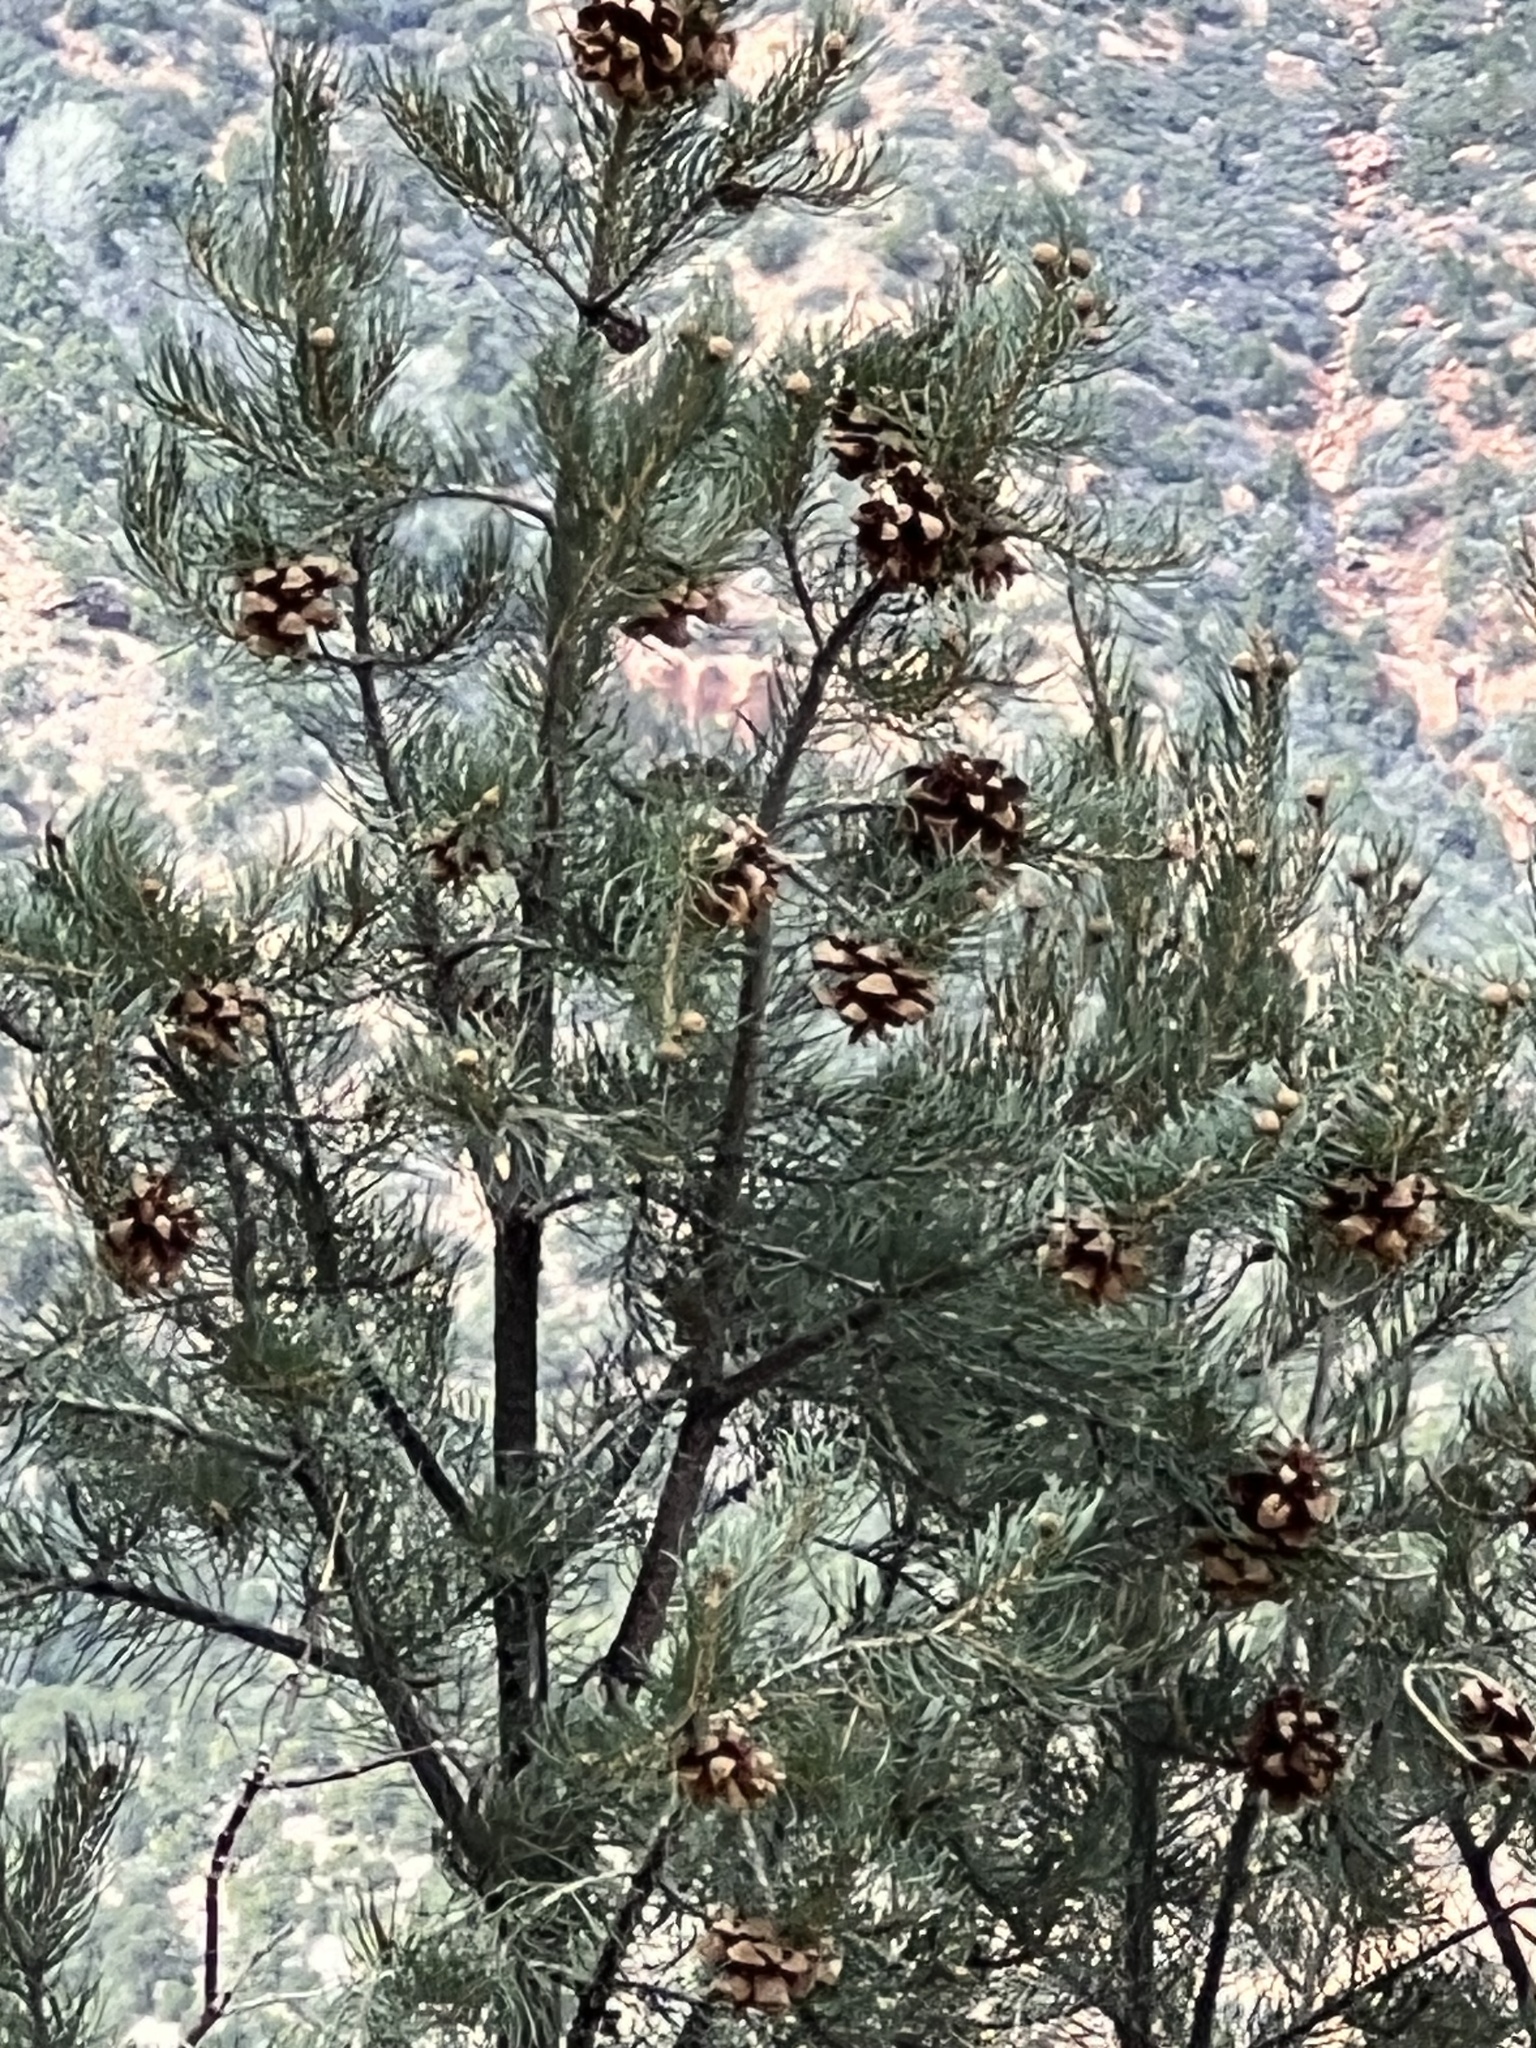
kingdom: Plantae
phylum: Tracheophyta
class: Pinopsida
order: Pinales
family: Pinaceae
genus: Pinus
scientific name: Pinus monophylla
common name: One-leaved nut pine
